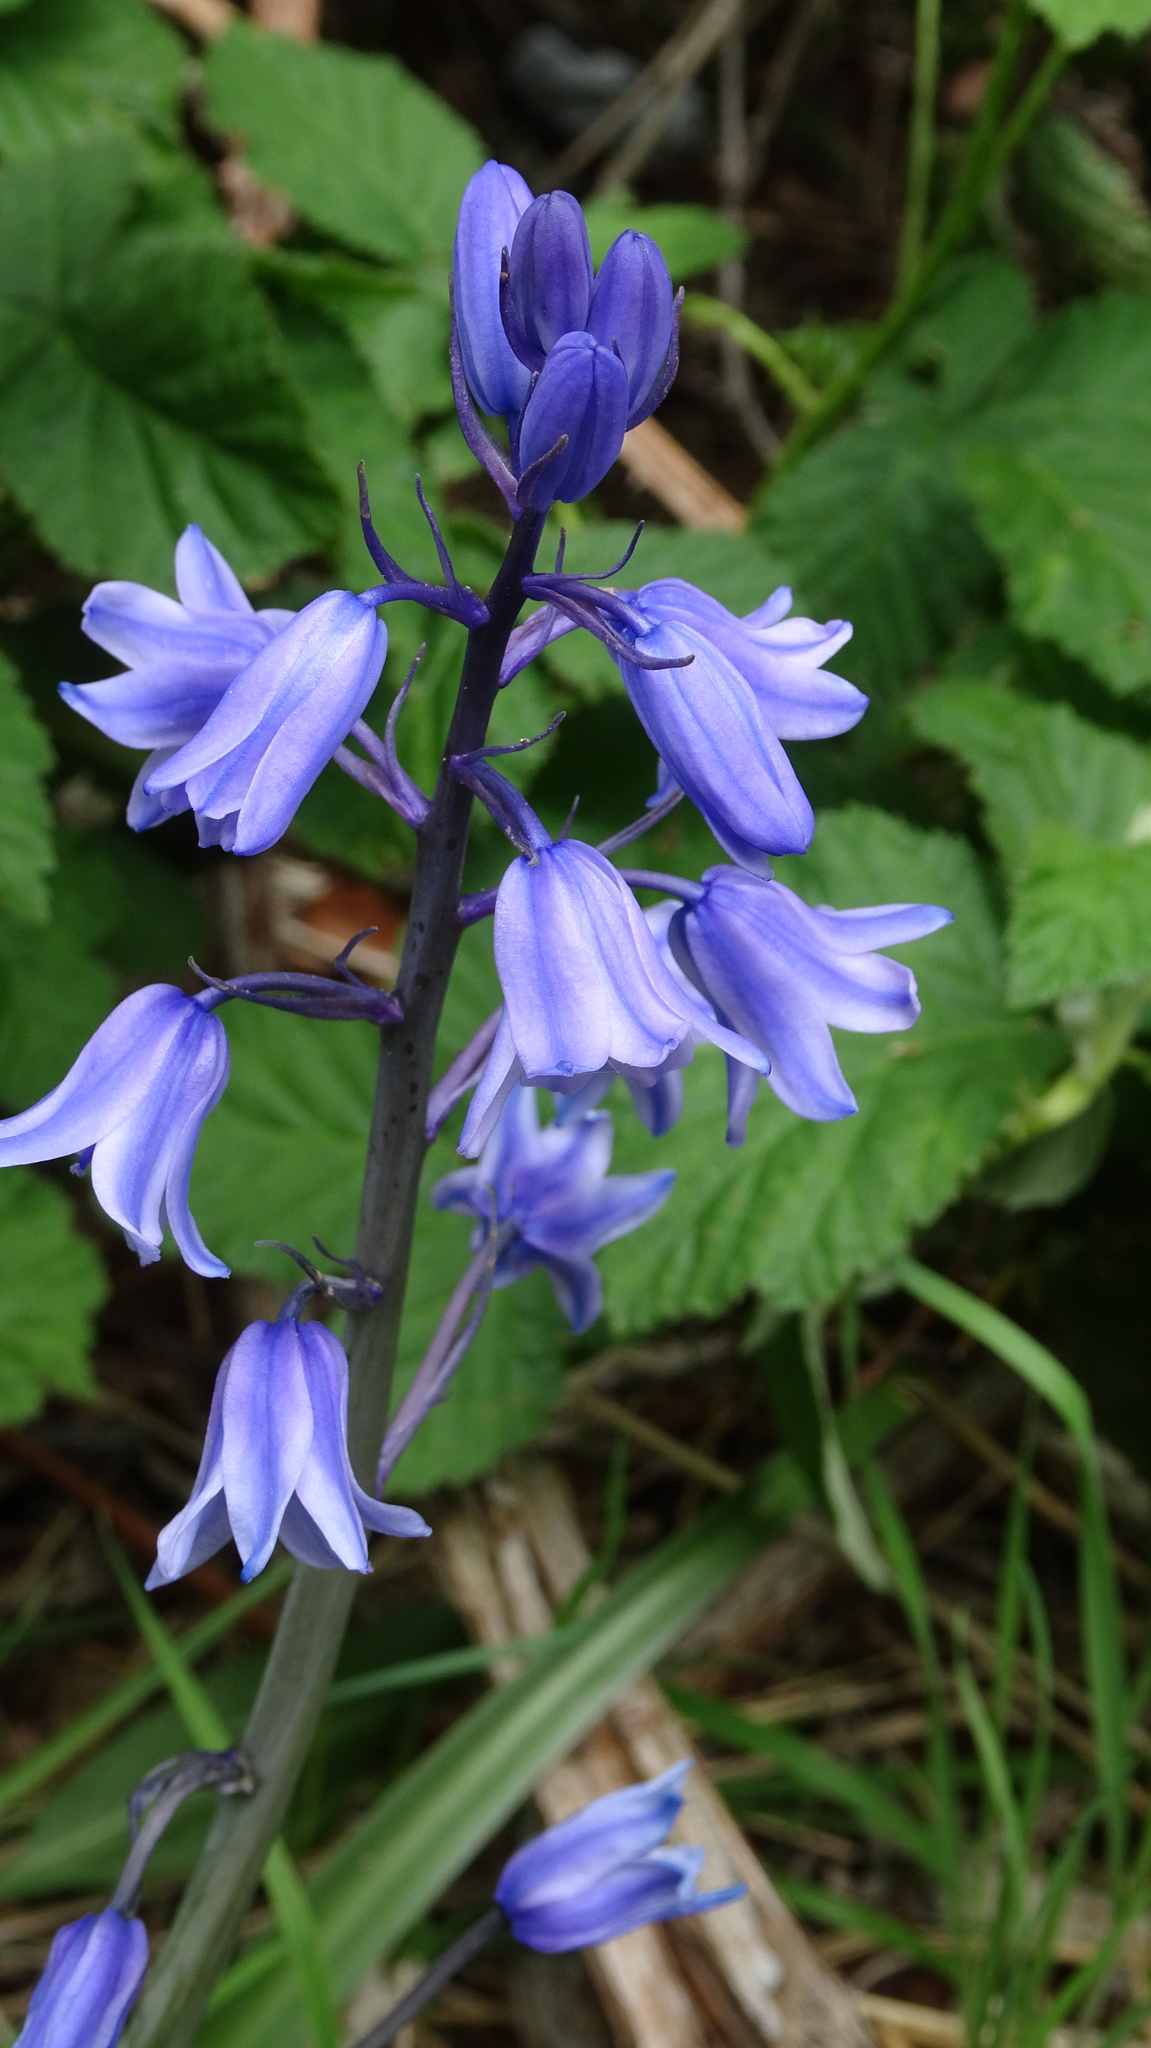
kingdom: Plantae
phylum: Tracheophyta
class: Liliopsida
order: Asparagales
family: Asparagaceae
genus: Hyacinthoides
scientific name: Hyacinthoides massartiana
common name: Hyacinthoides
